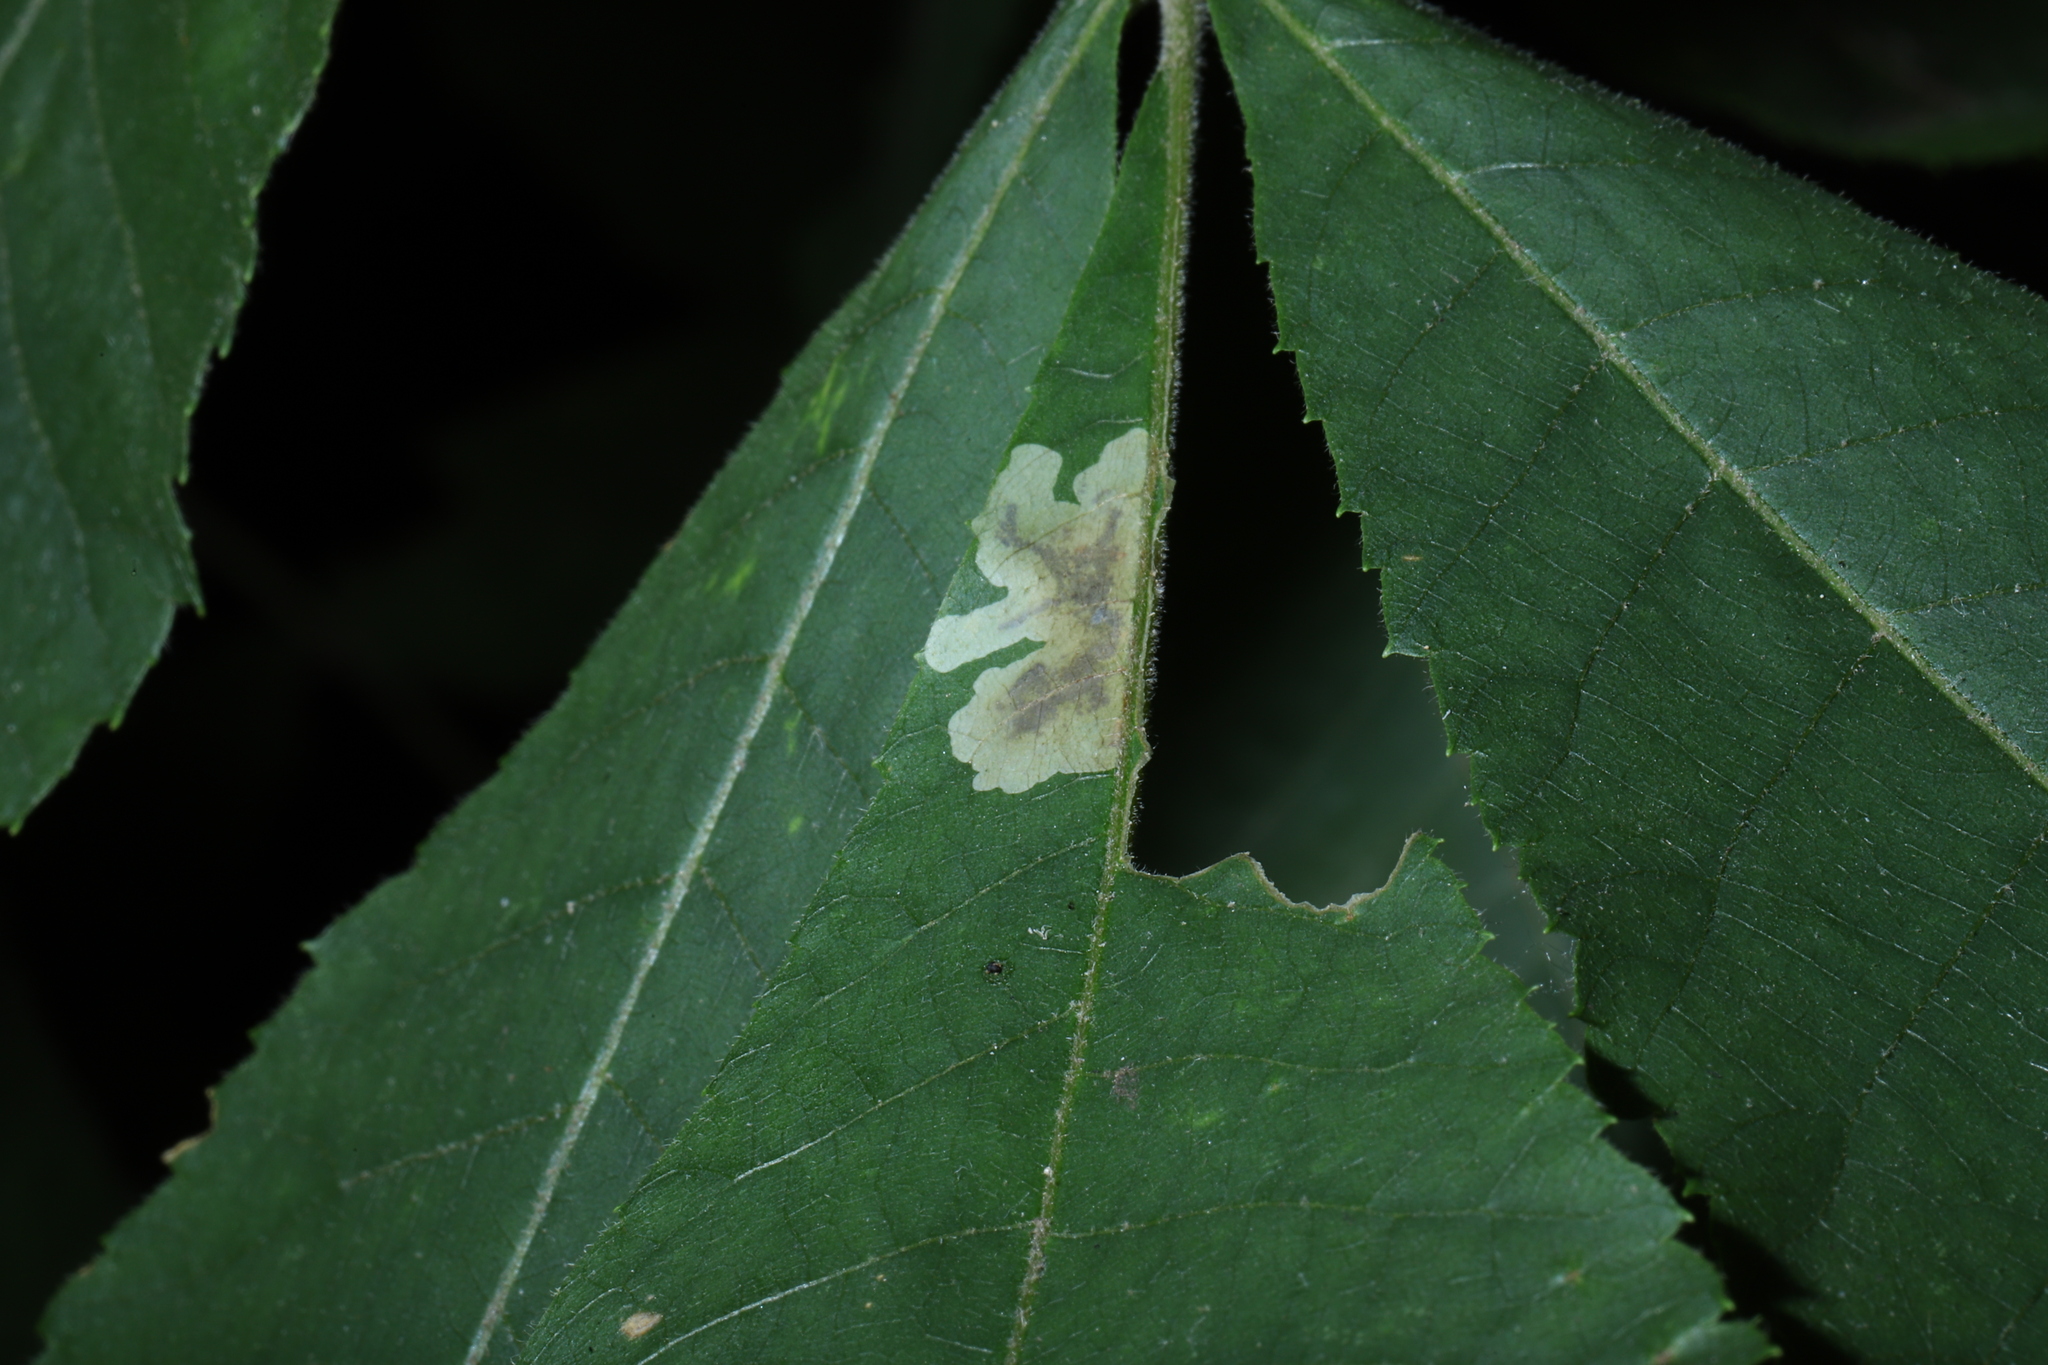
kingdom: Animalia
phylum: Arthropoda
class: Insecta
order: Lepidoptera
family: Gracillariidae
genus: Cameraria
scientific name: Cameraria caryaefoliella
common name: Pecan leafminer moth
